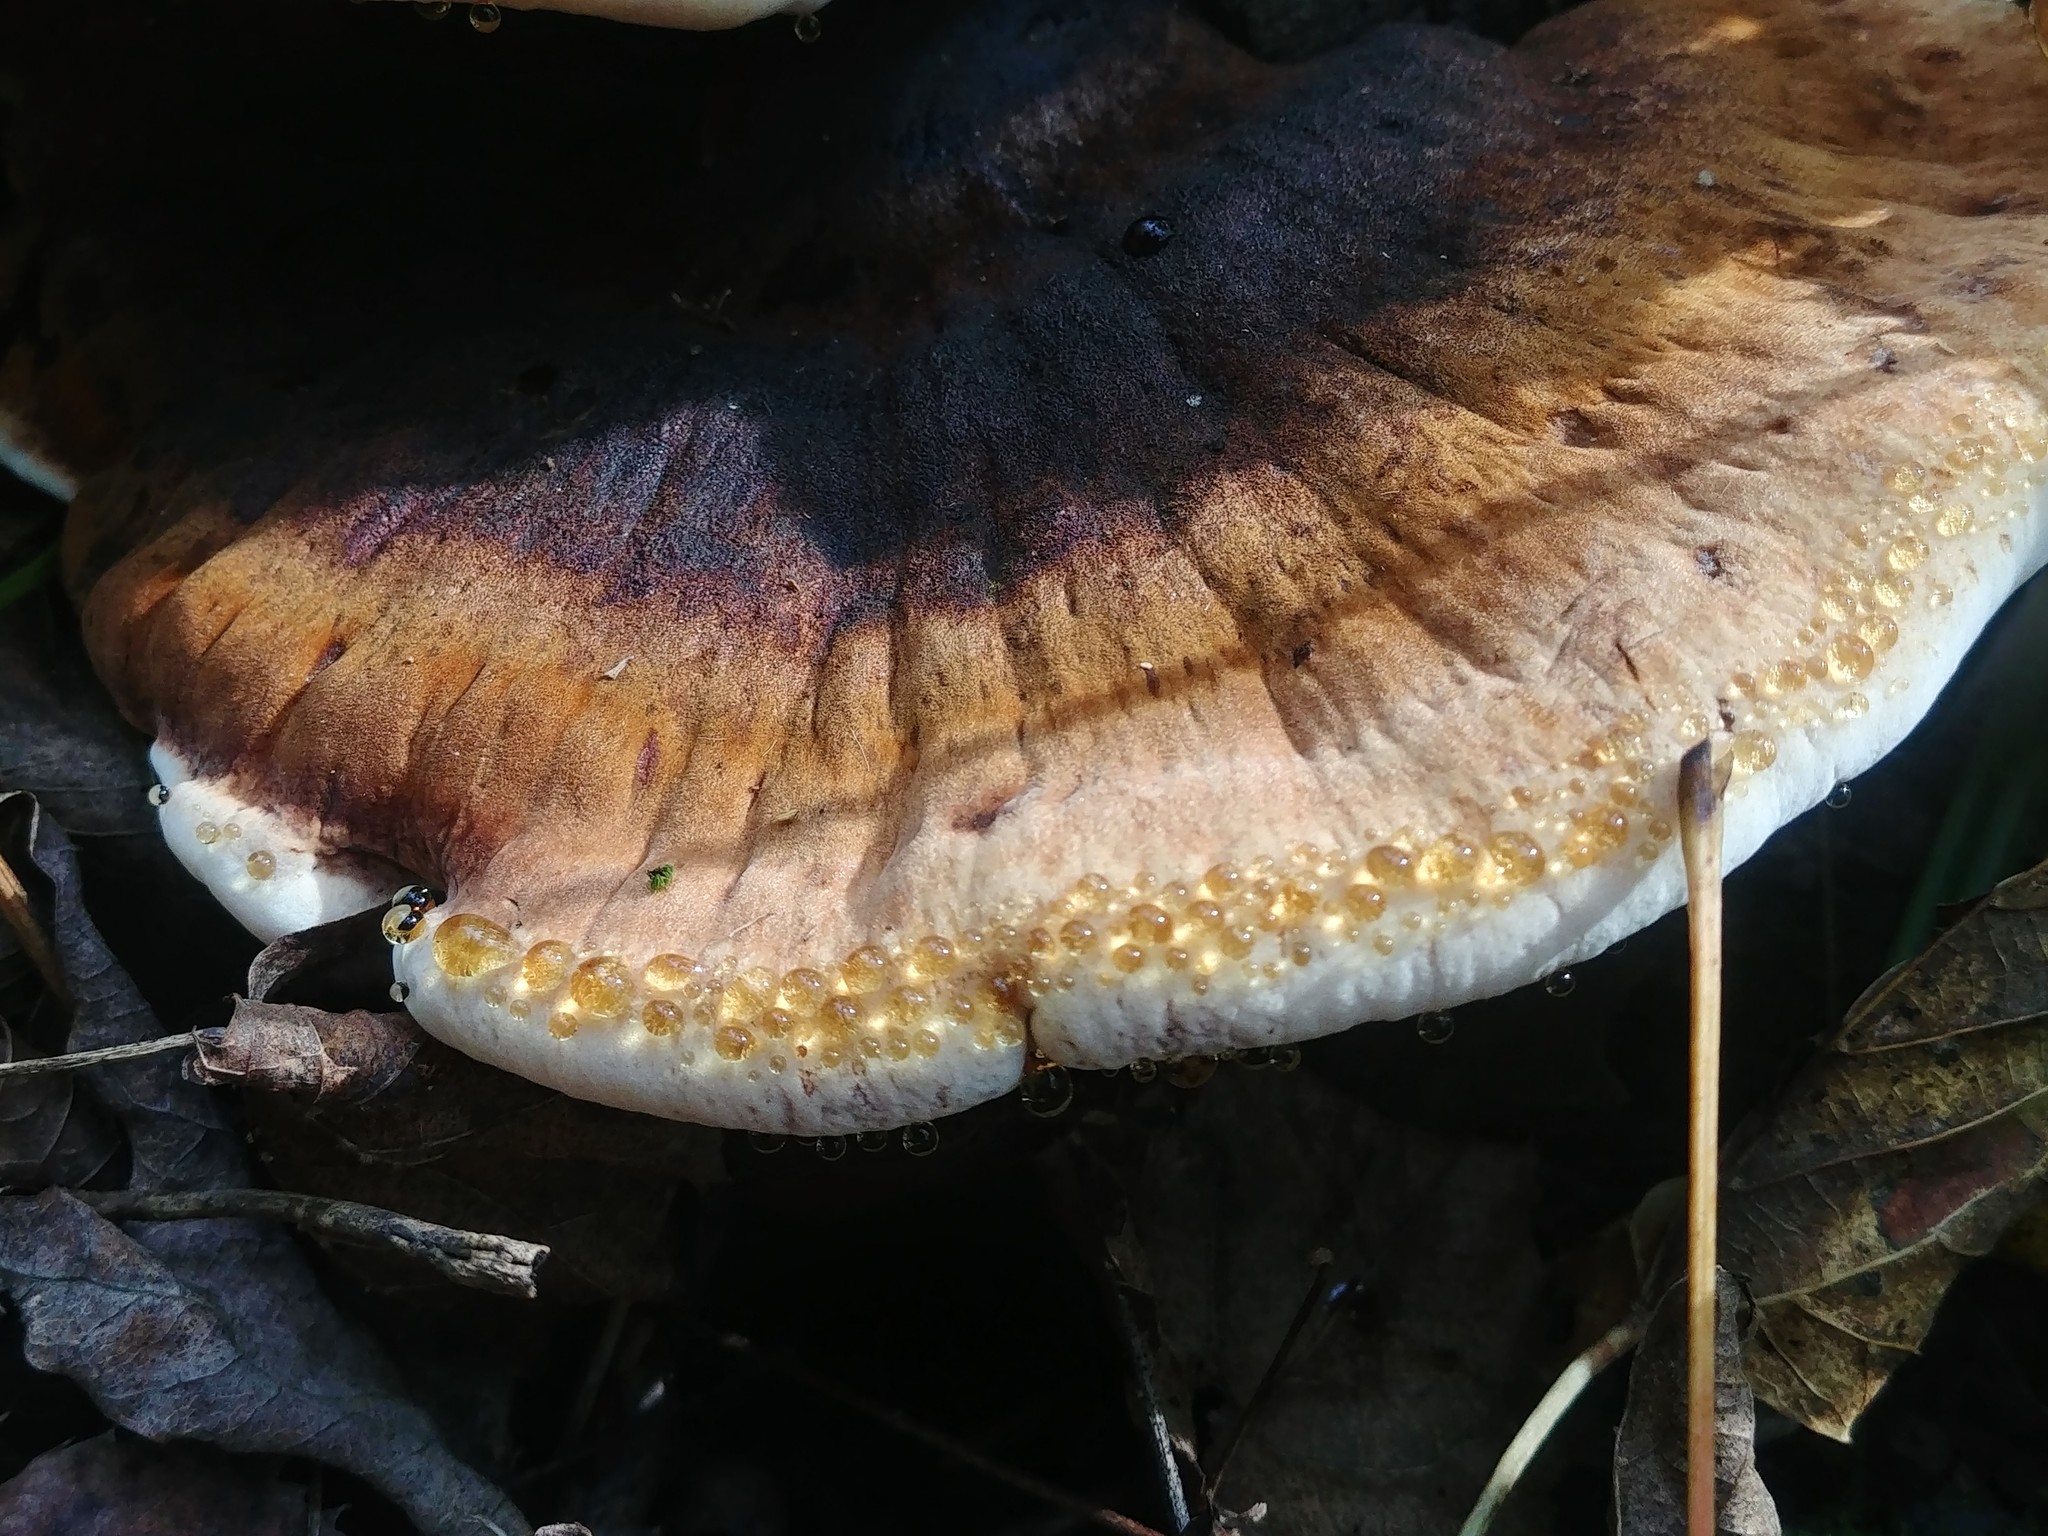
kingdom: Fungi
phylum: Basidiomycota
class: Agaricomycetes
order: Polyporales
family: Ischnodermataceae
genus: Ischnoderma
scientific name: Ischnoderma resinosum
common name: Resinous polypore
